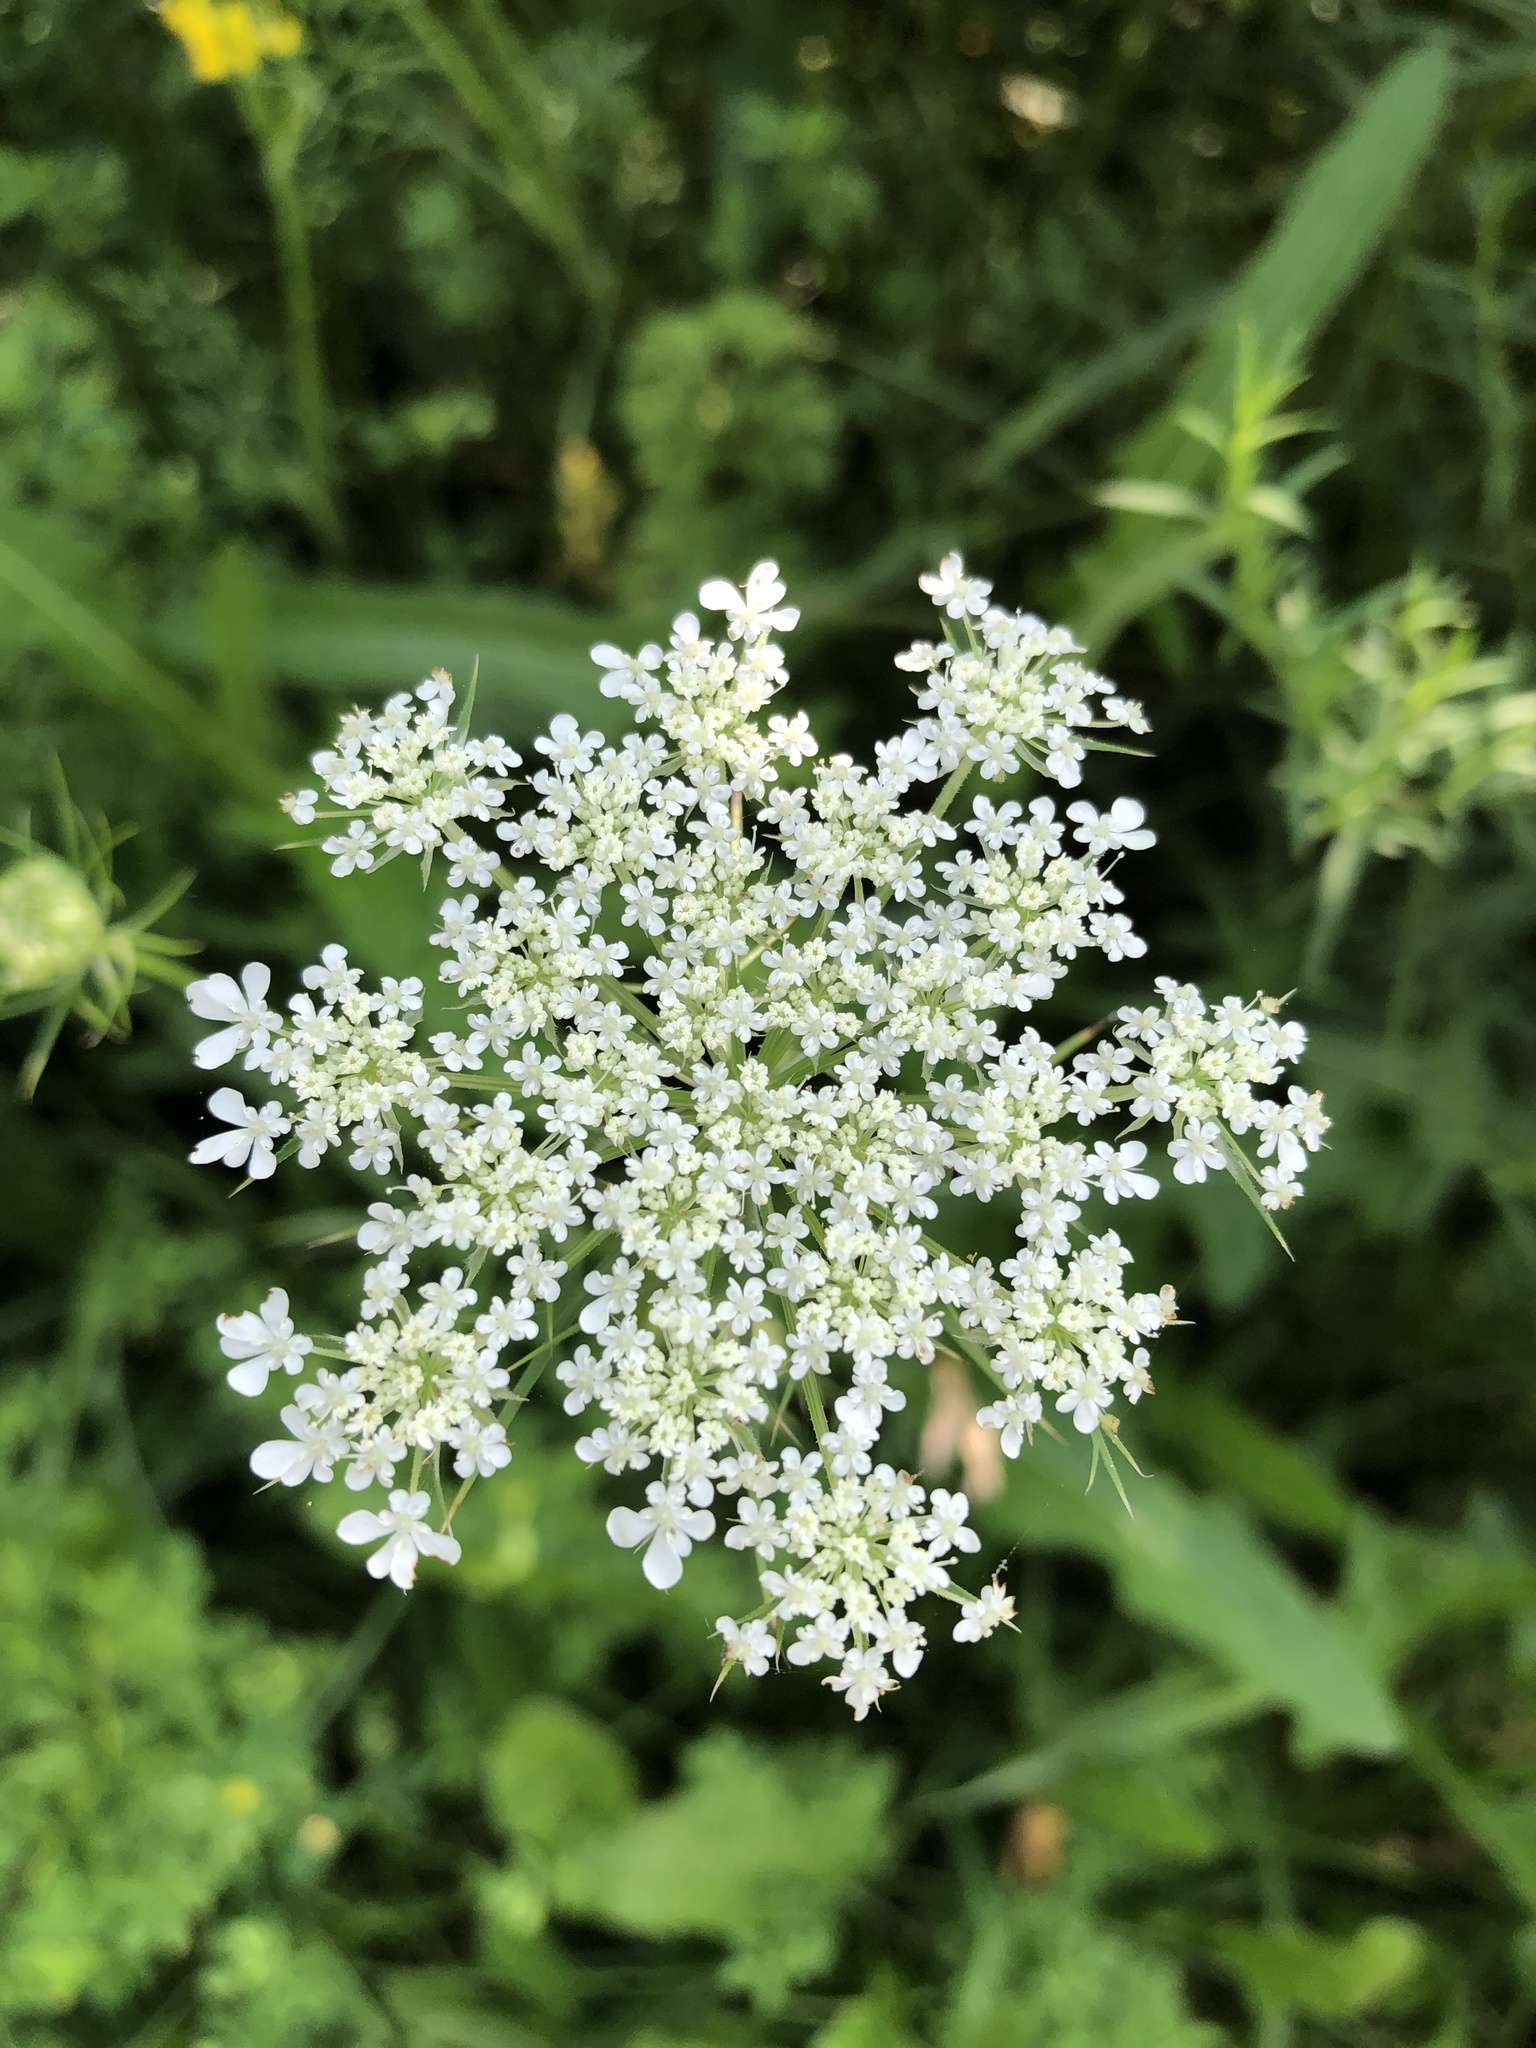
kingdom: Plantae
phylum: Tracheophyta
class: Magnoliopsida
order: Apiales
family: Apiaceae
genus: Daucus
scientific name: Daucus carota
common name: Wild carrot
